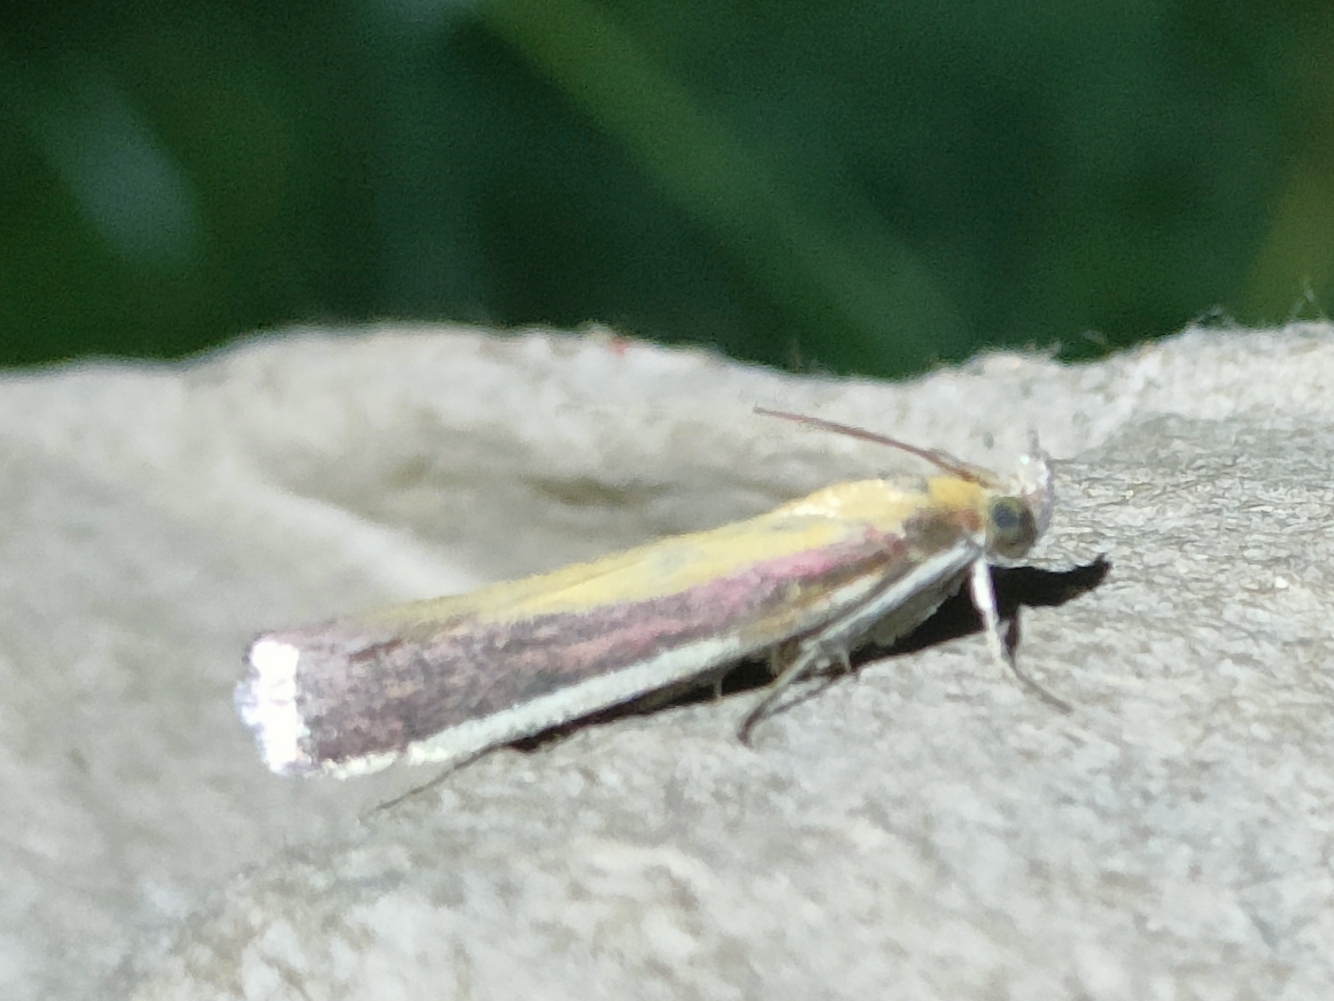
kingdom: Animalia
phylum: Arthropoda
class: Insecta
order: Lepidoptera
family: Pyralidae
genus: Oncocera
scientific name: Oncocera semirubella
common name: Rosy-striped knot-horn
